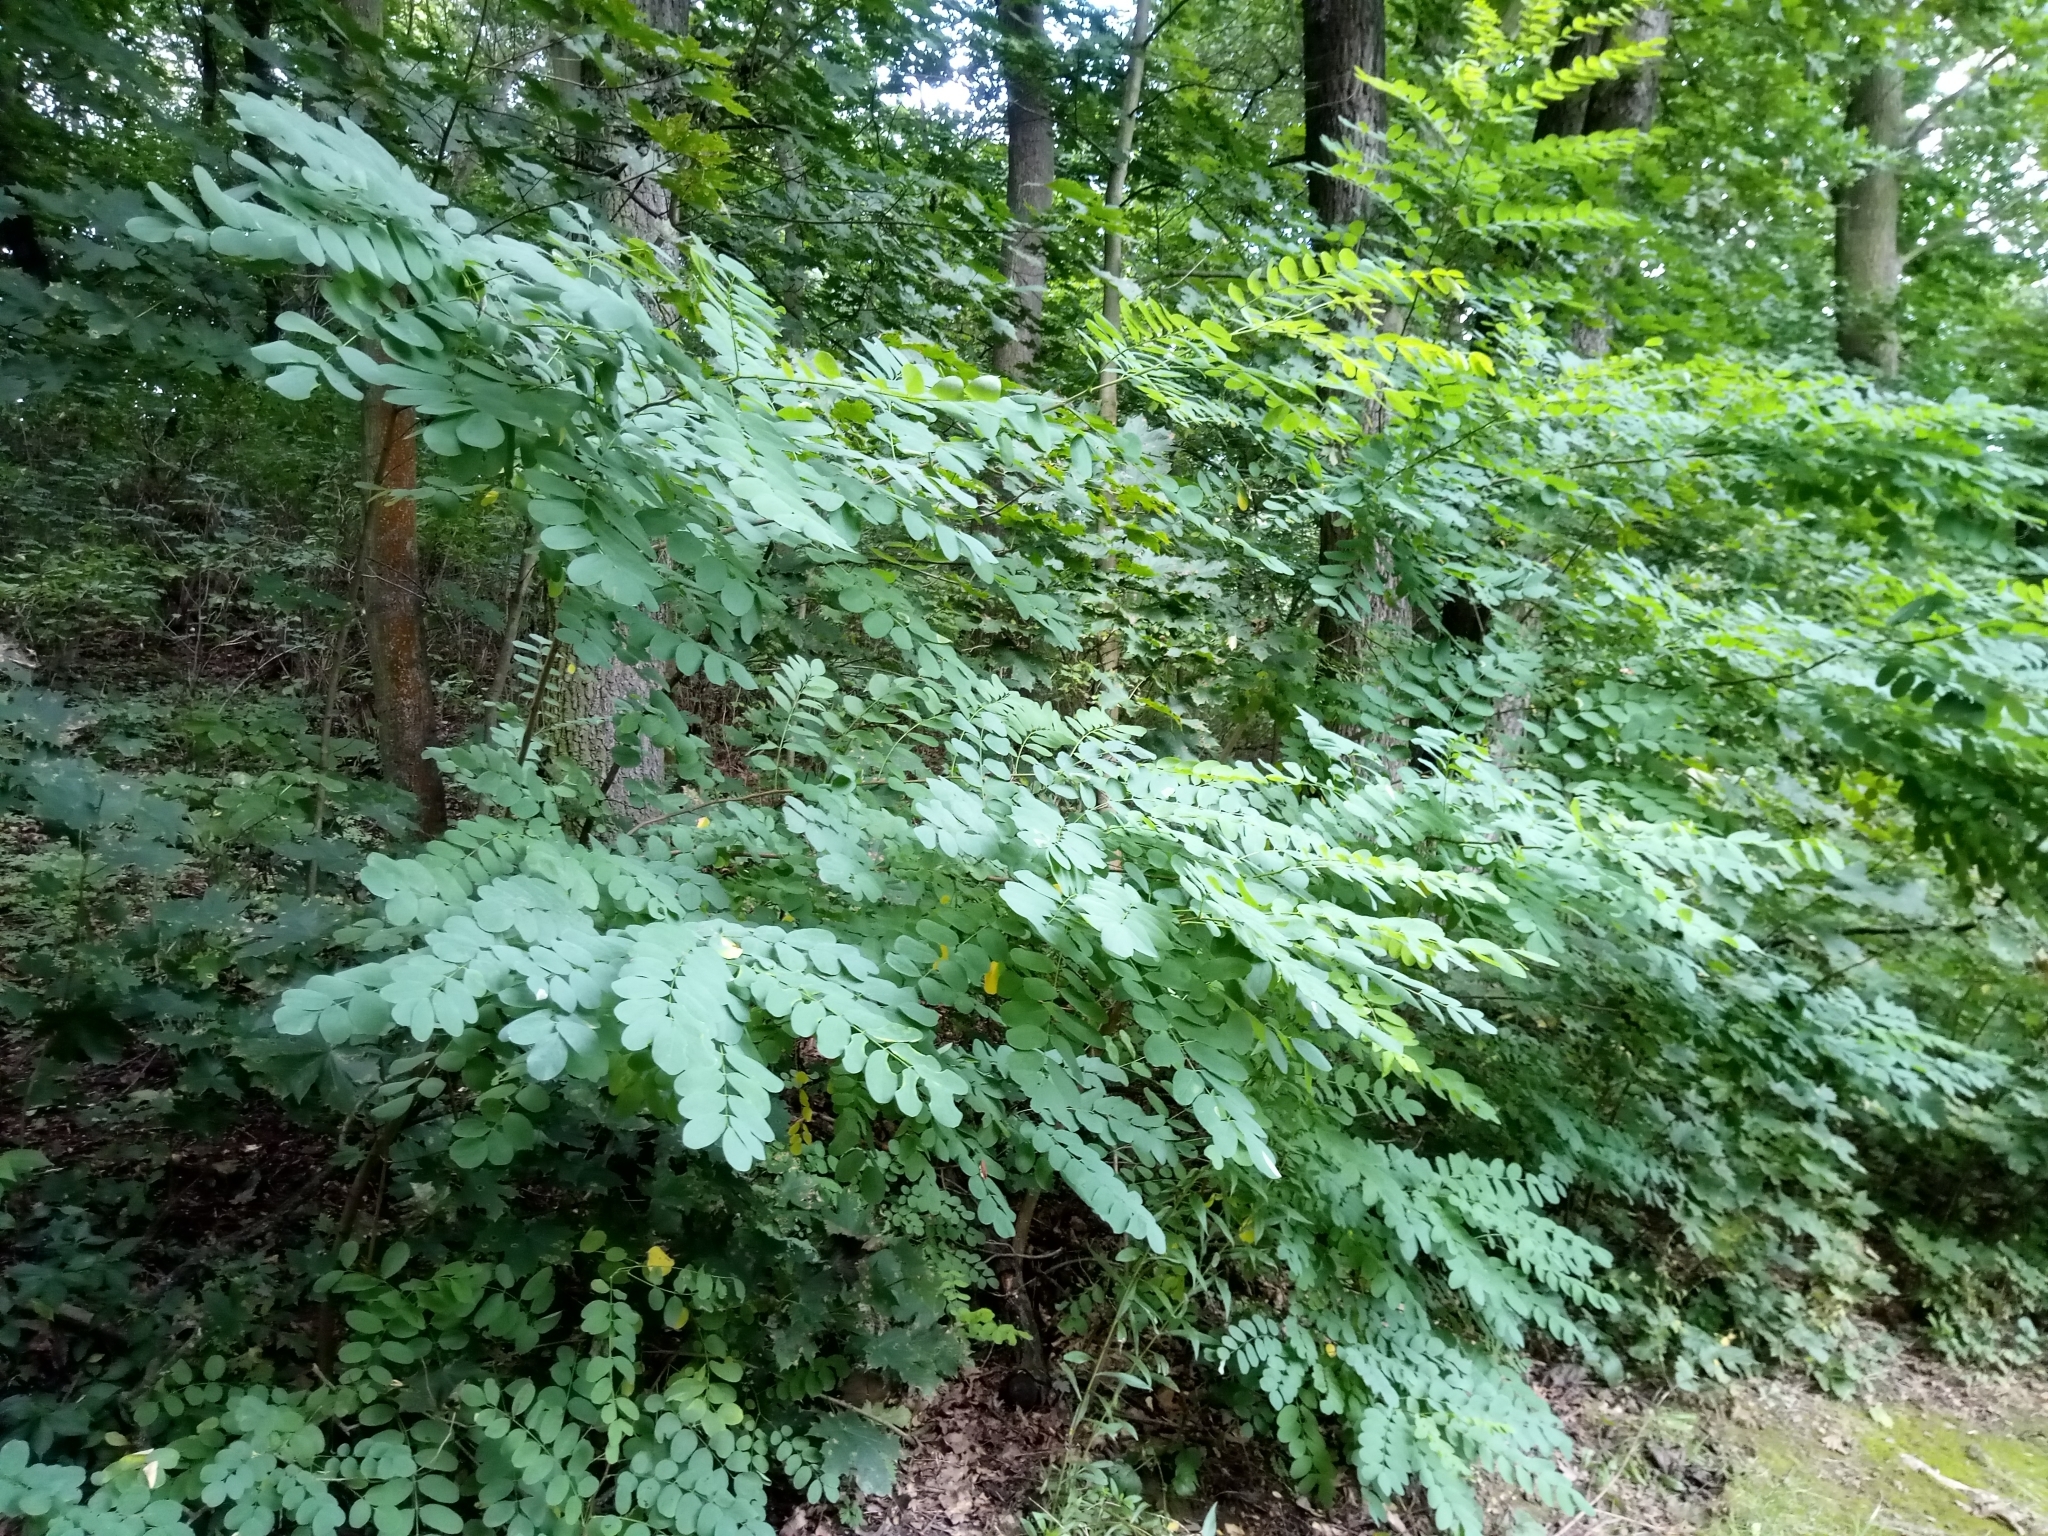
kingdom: Plantae
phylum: Tracheophyta
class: Magnoliopsida
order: Fabales
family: Fabaceae
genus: Robinia
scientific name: Robinia pseudoacacia
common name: Black locust
